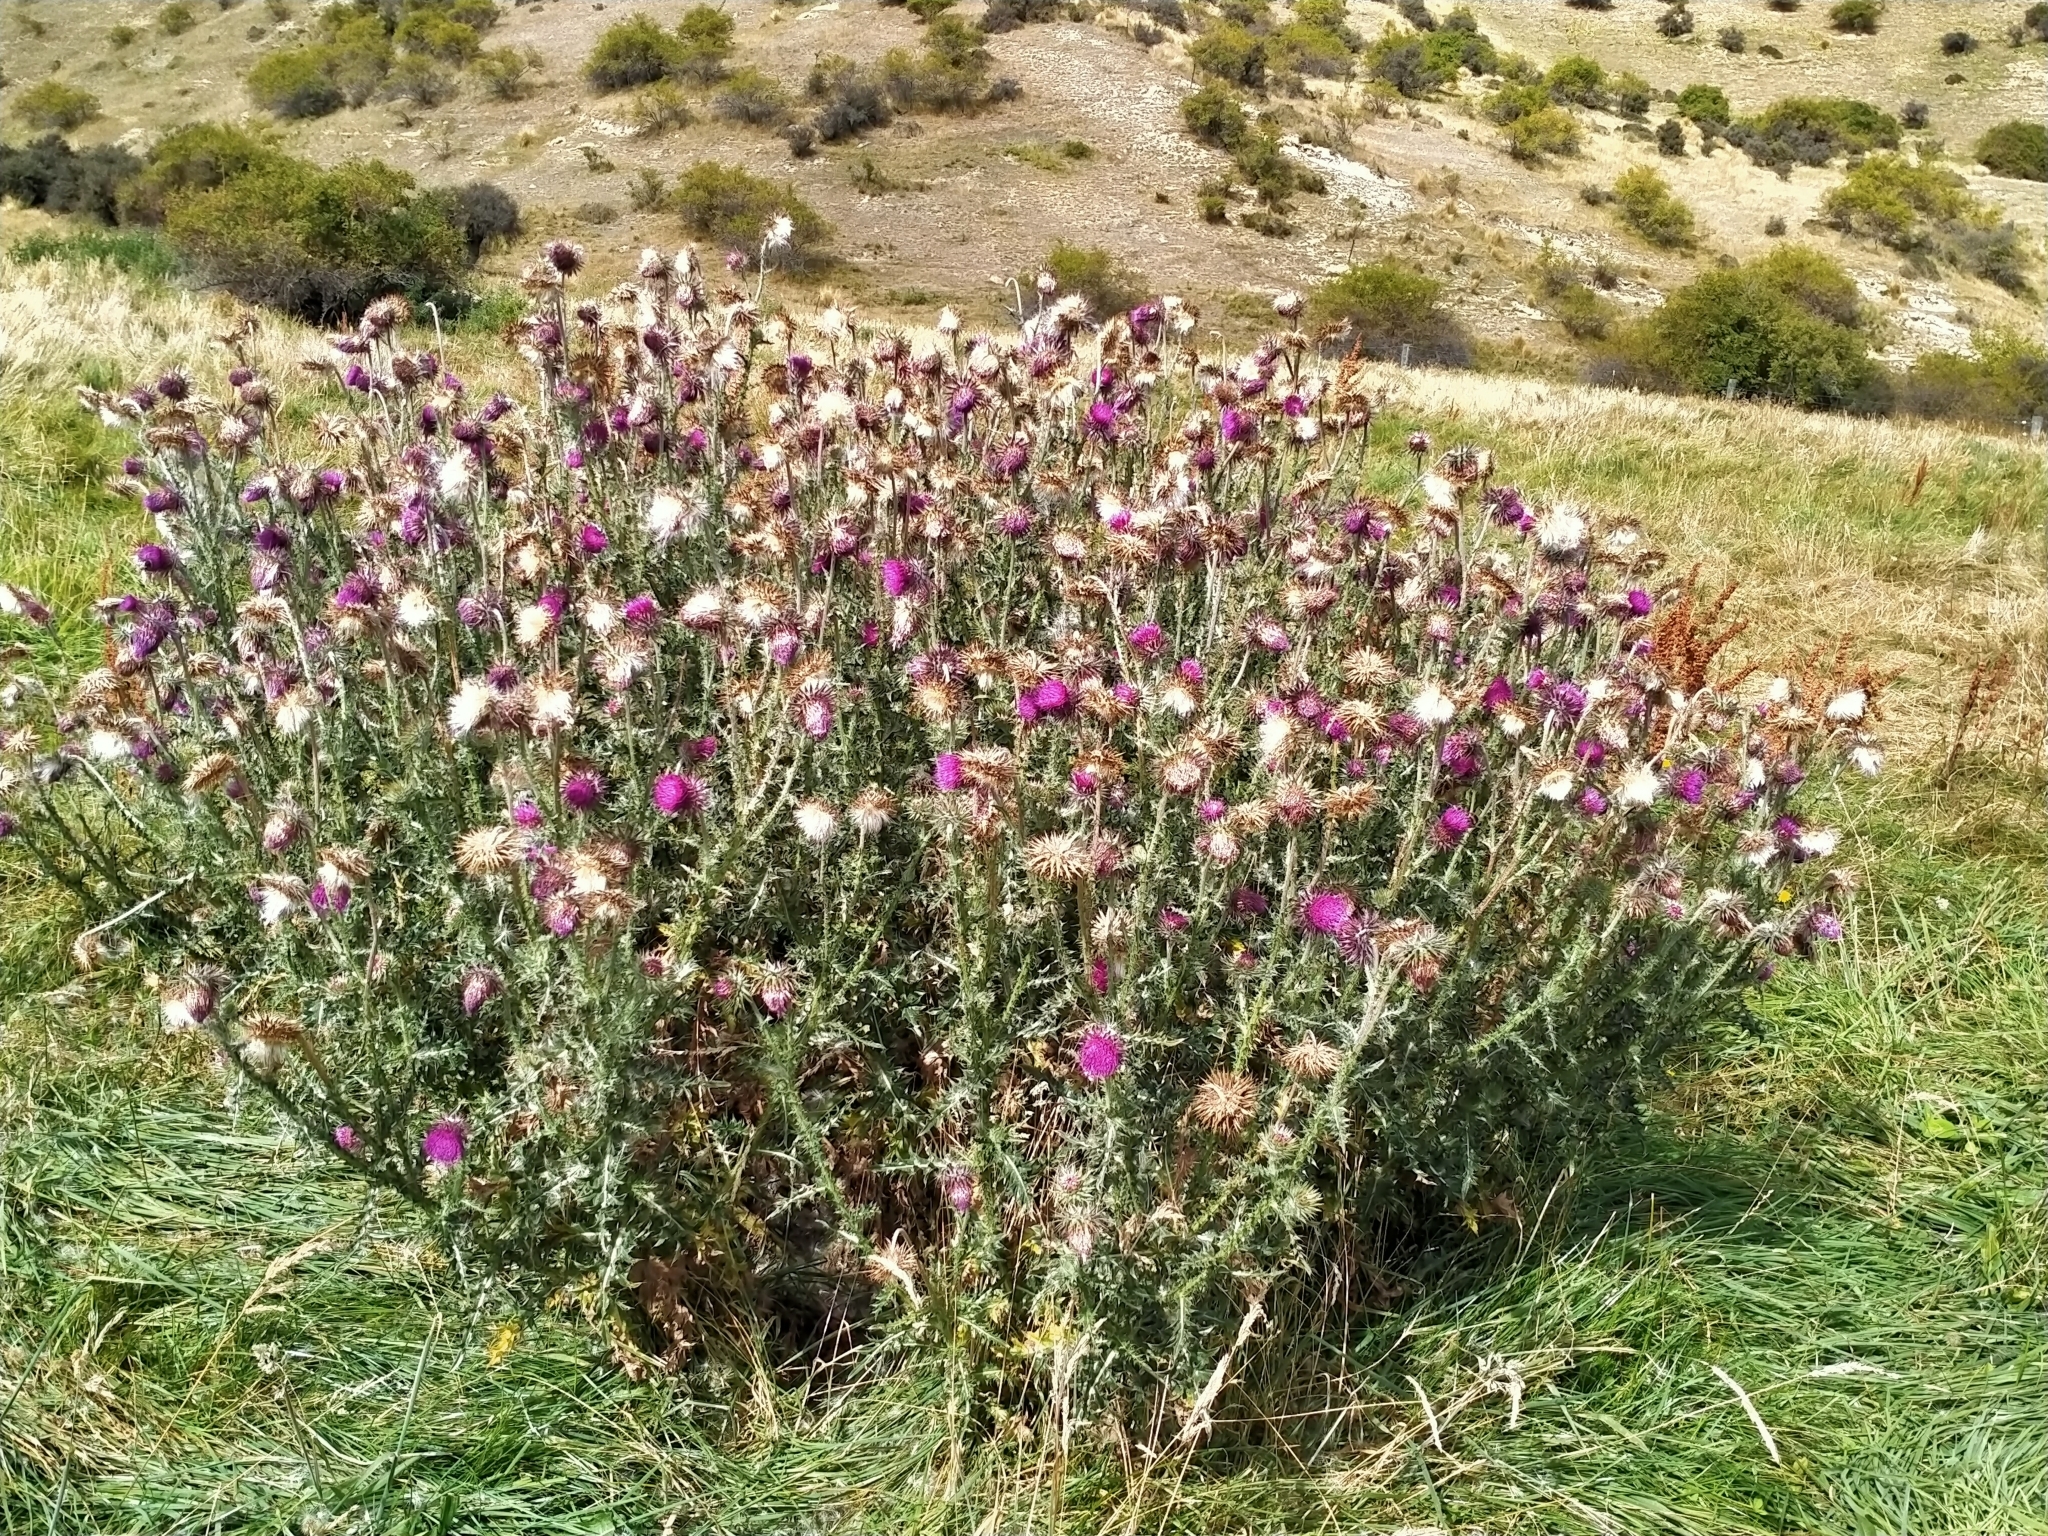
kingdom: Plantae
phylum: Tracheophyta
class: Magnoliopsida
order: Asterales
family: Asteraceae
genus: Carduus
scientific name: Carduus nutans
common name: Musk thistle
